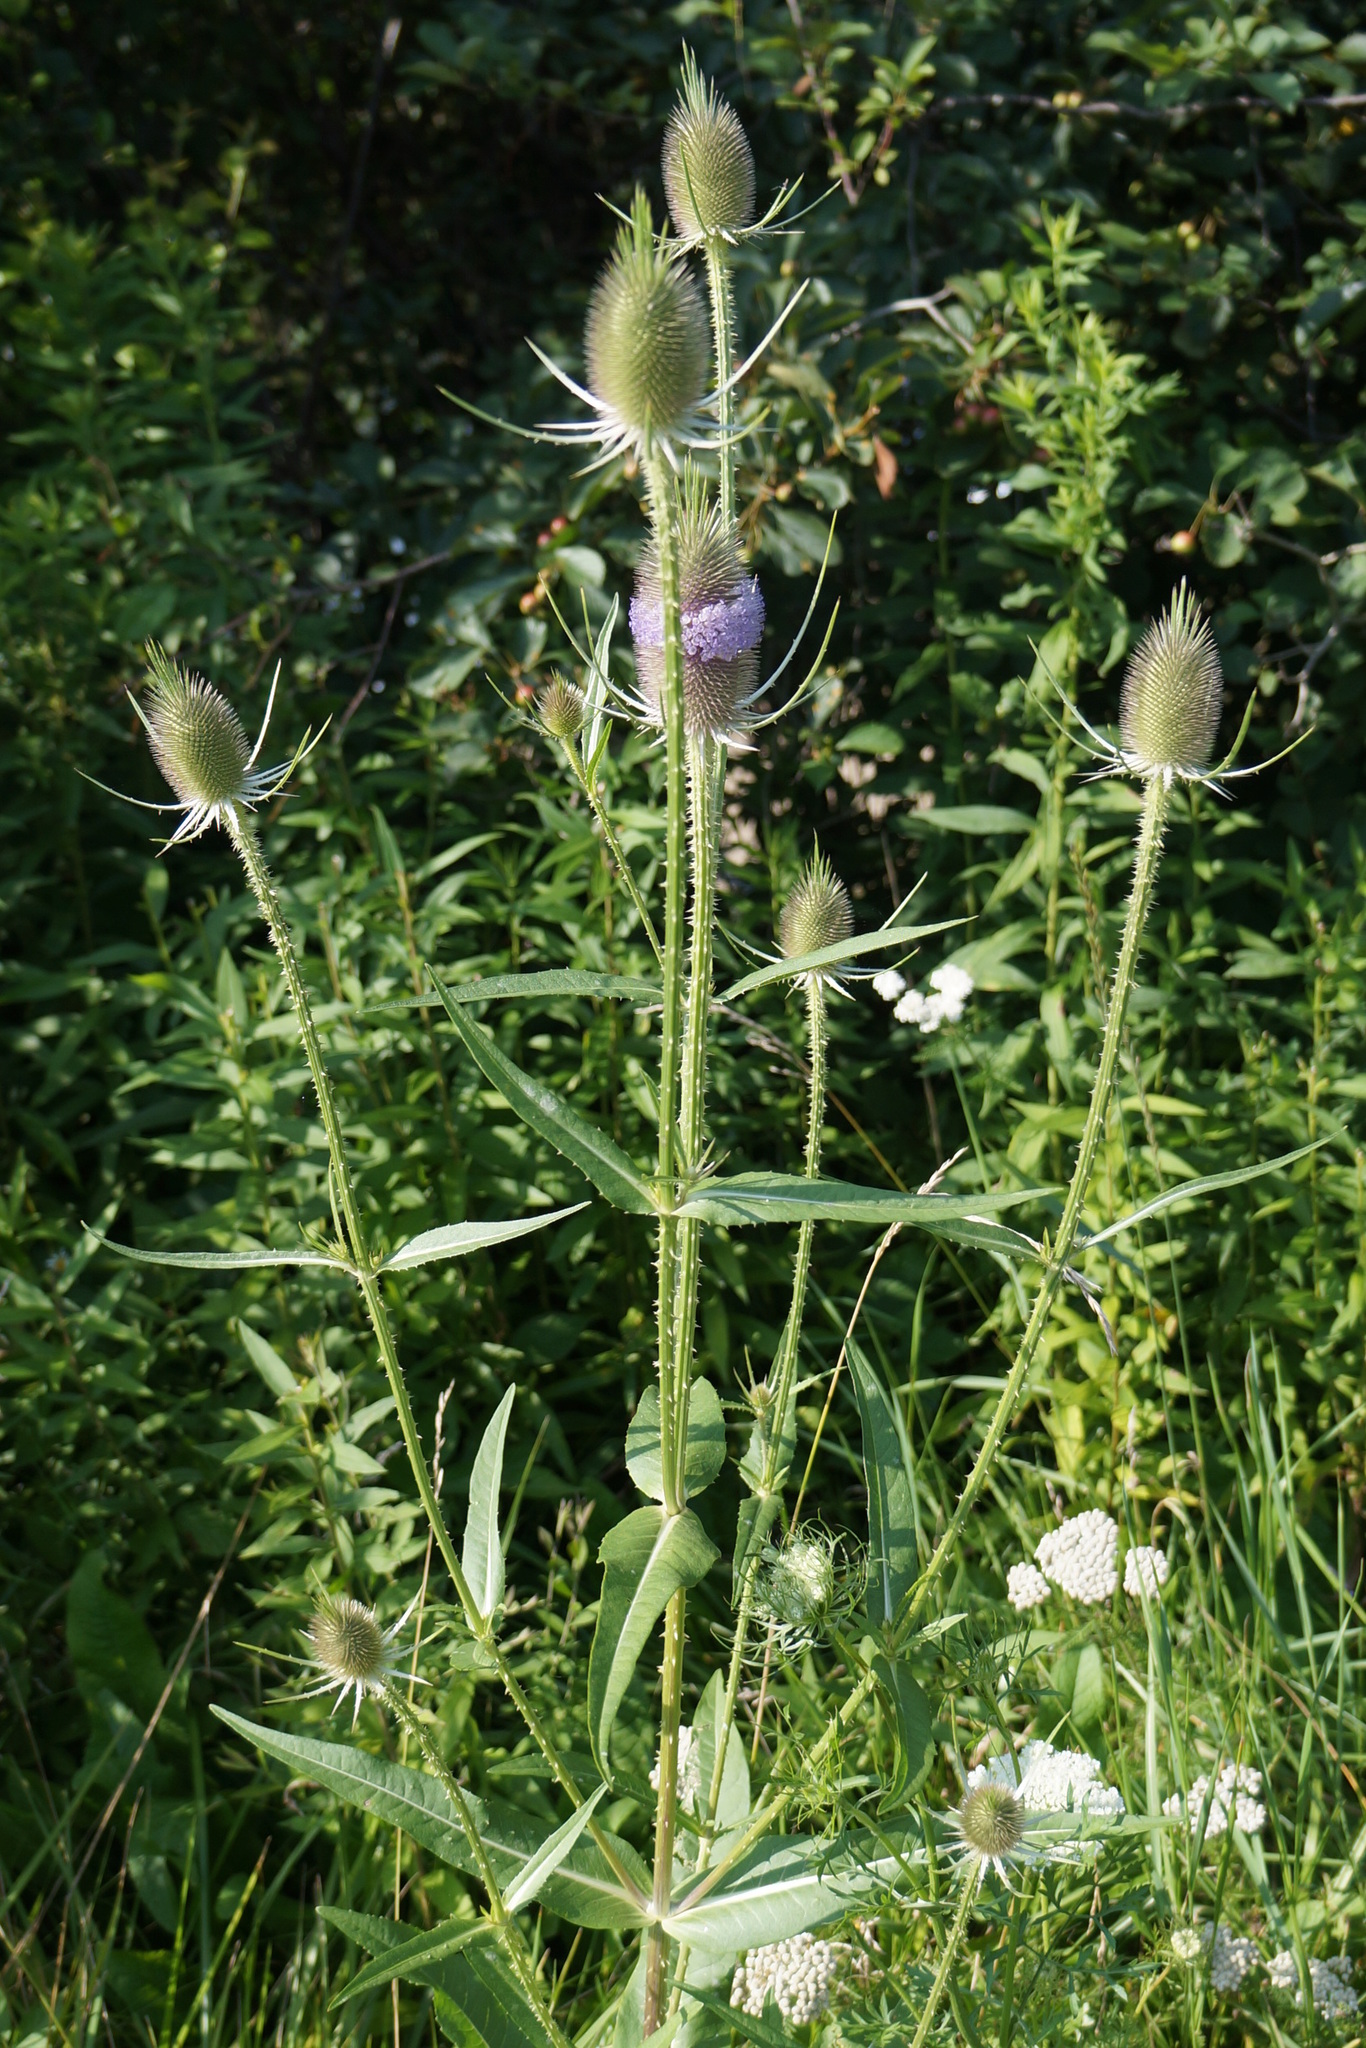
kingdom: Plantae
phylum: Tracheophyta
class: Magnoliopsida
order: Dipsacales
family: Caprifoliaceae
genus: Dipsacus
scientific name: Dipsacus fullonum
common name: Teasel
